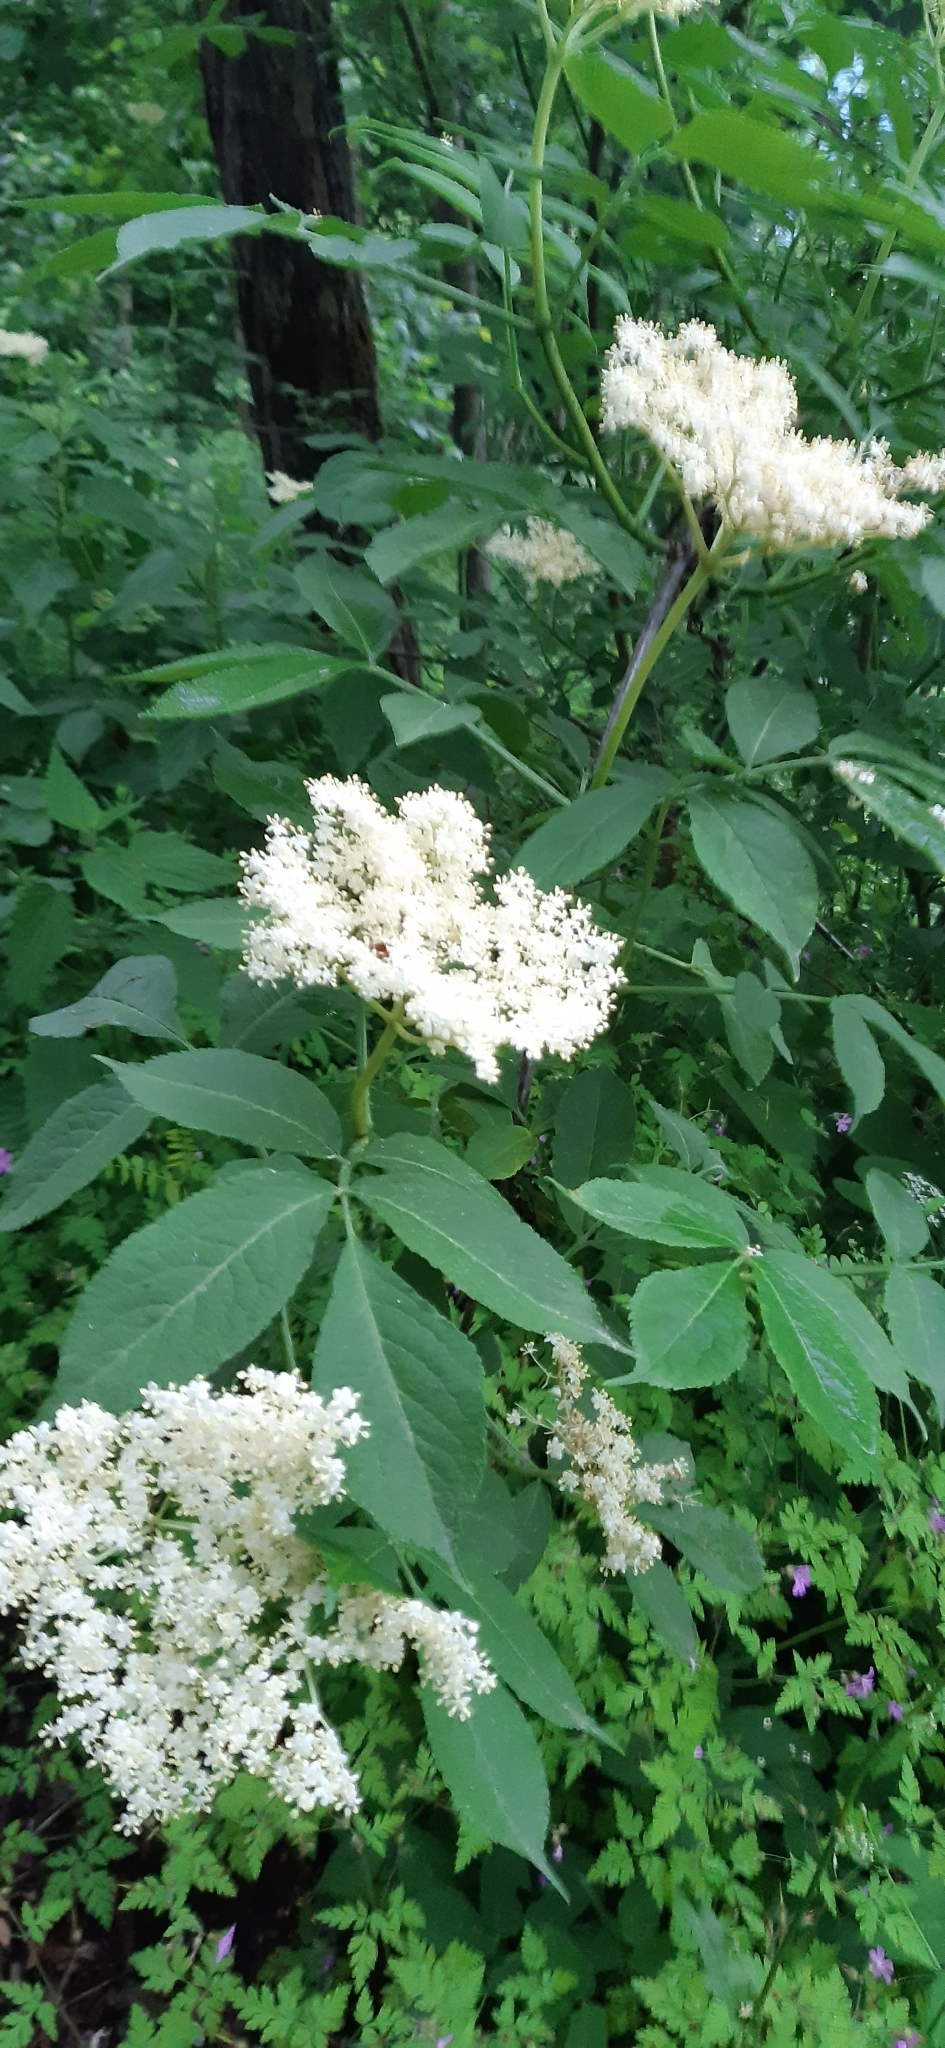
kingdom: Plantae
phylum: Tracheophyta
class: Magnoliopsida
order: Dipsacales
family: Viburnaceae
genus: Sambucus
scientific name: Sambucus nigra
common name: Elder
